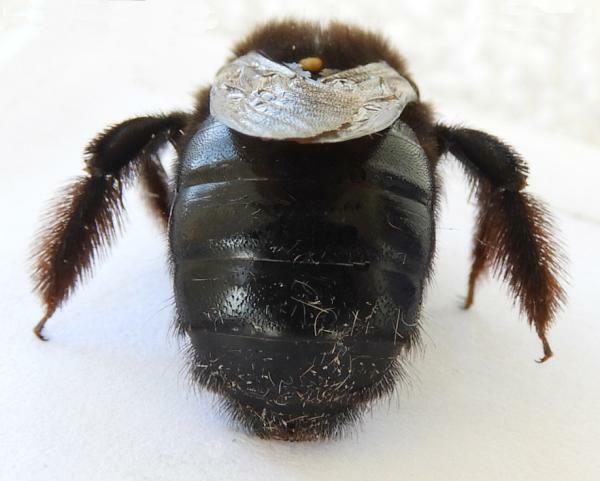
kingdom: Animalia
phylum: Arthropoda
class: Insecta
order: Hymenoptera
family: Apidae
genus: Xylocopa
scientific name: Xylocopa tabaniformis
